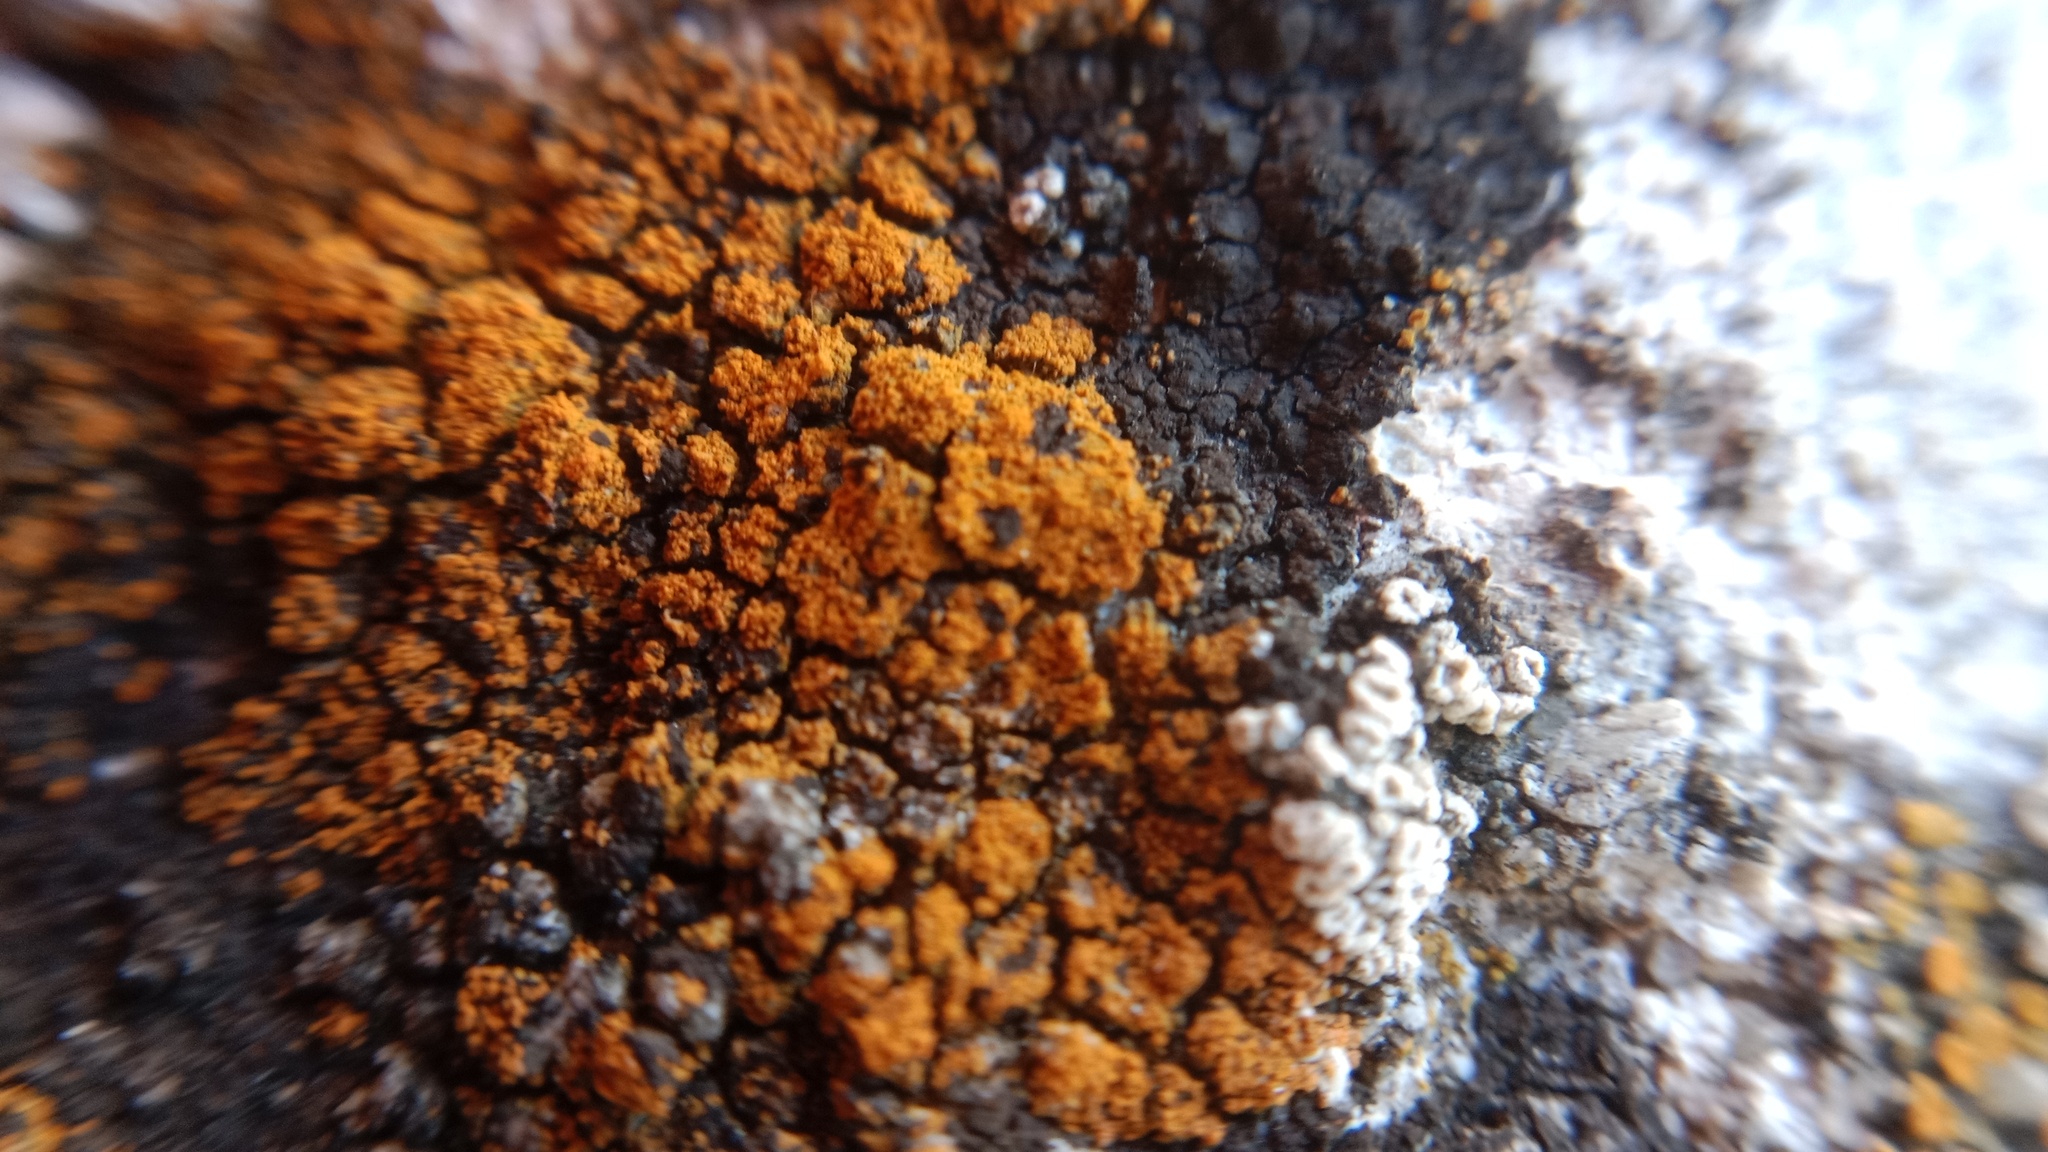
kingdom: Fungi
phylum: Ascomycota
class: Lecanoromycetes
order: Teloschistales
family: Teloschistaceae
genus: Flavoplaca
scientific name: Flavoplaca coronata
